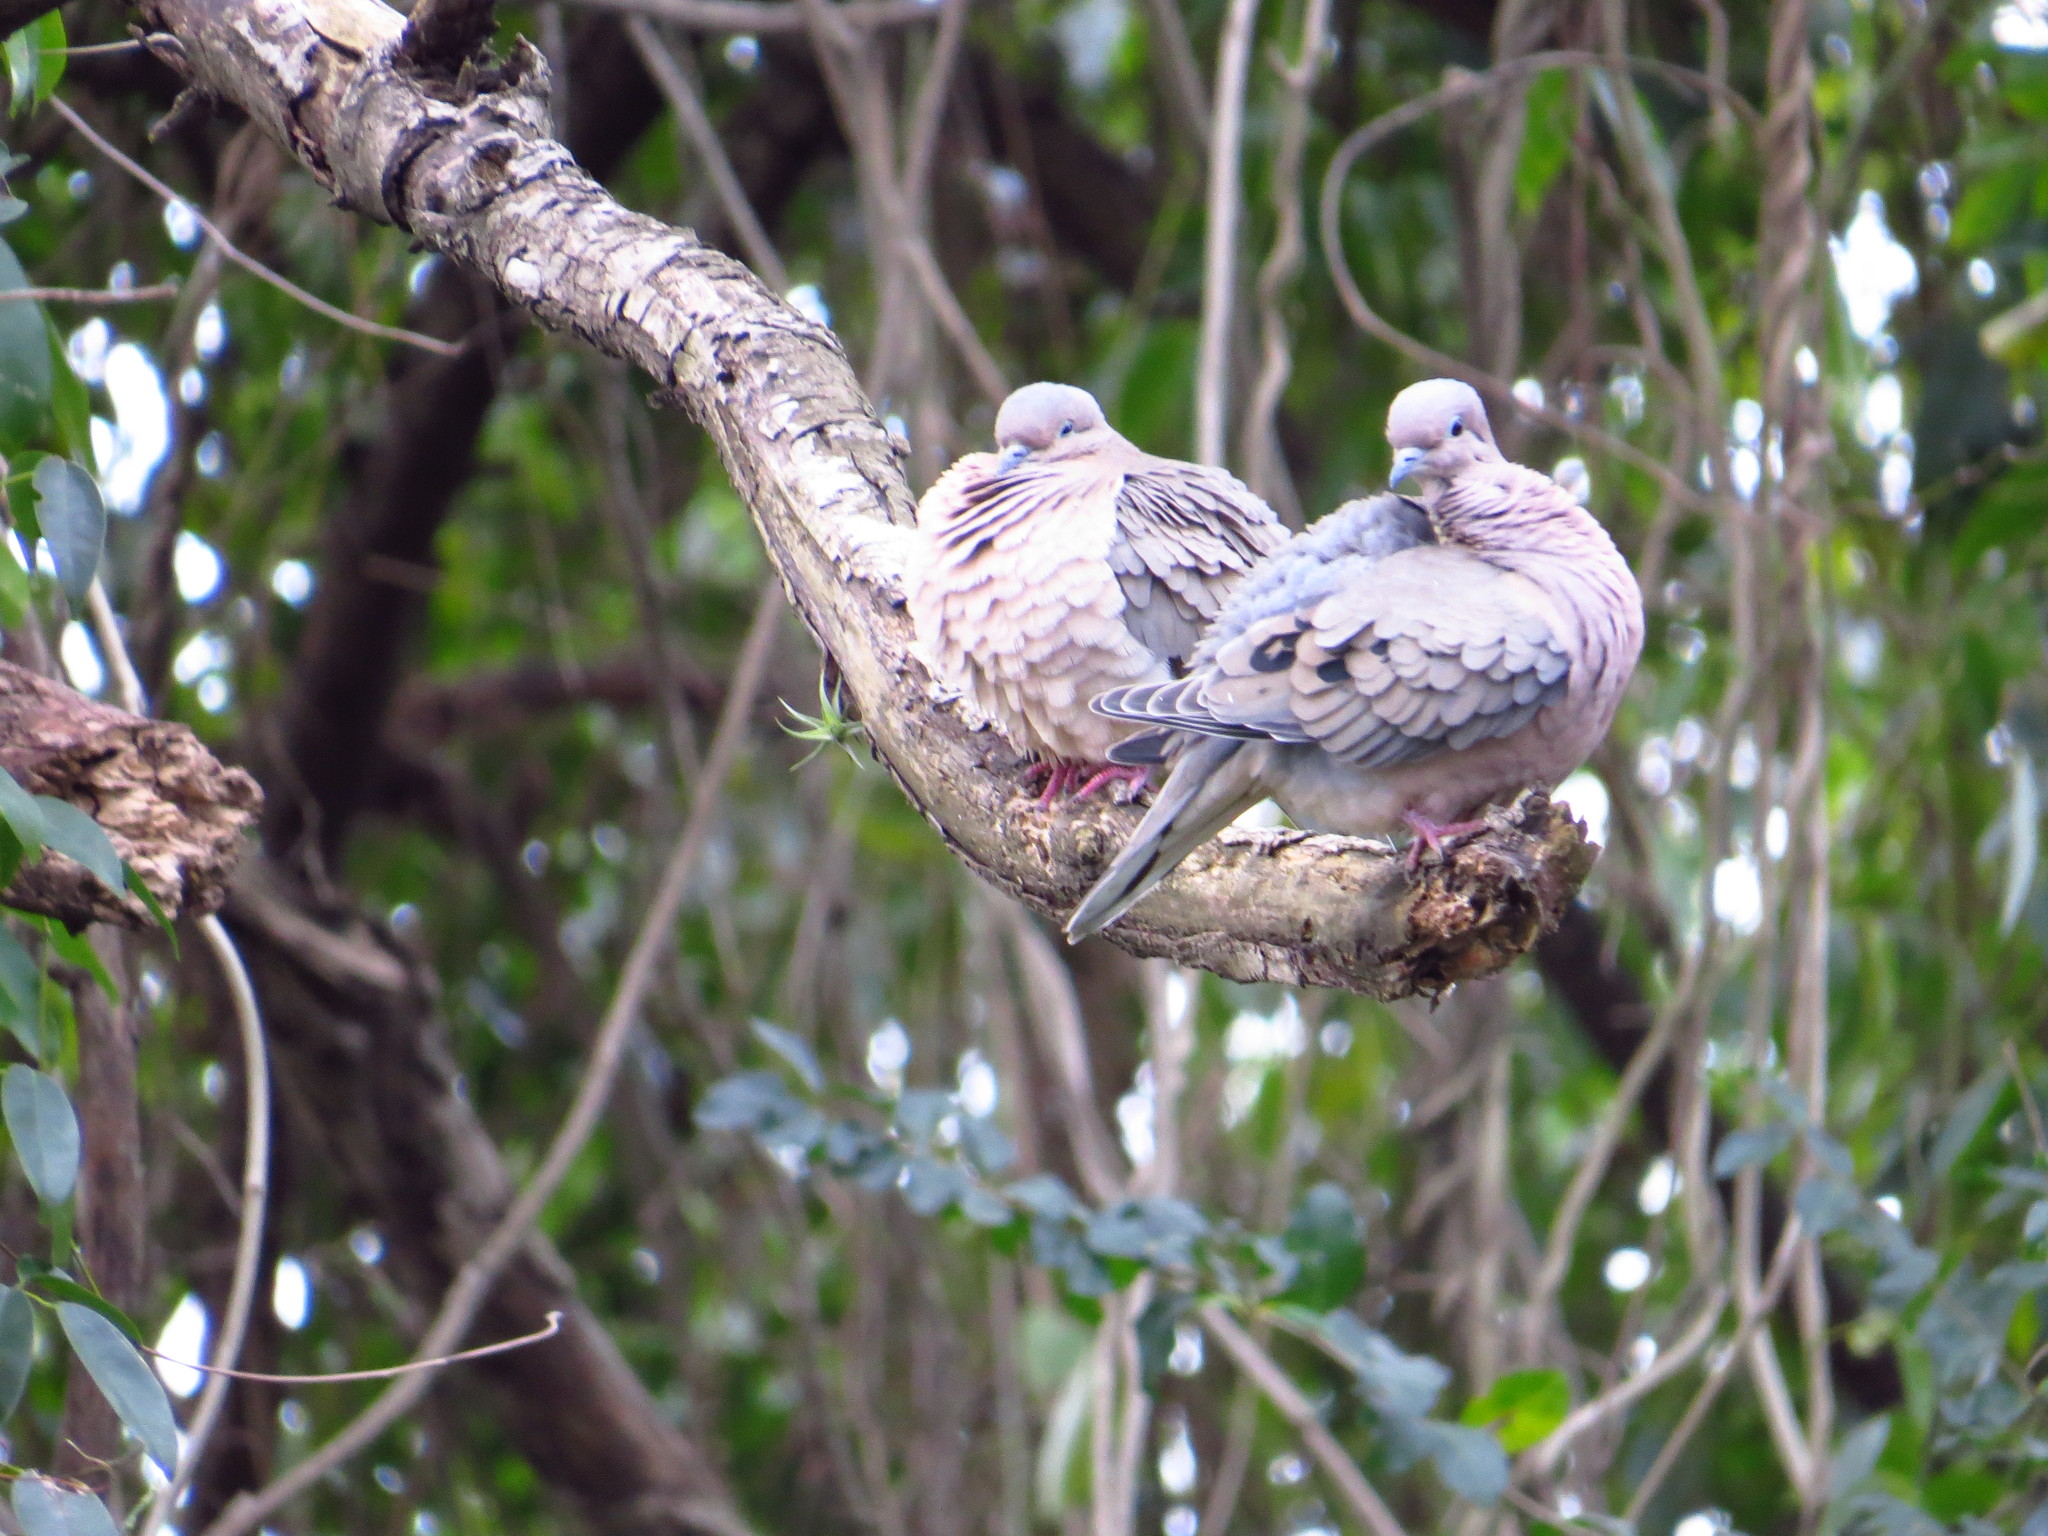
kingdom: Animalia
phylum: Chordata
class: Aves
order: Columbiformes
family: Columbidae
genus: Zenaida
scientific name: Zenaida auriculata
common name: Eared dove
